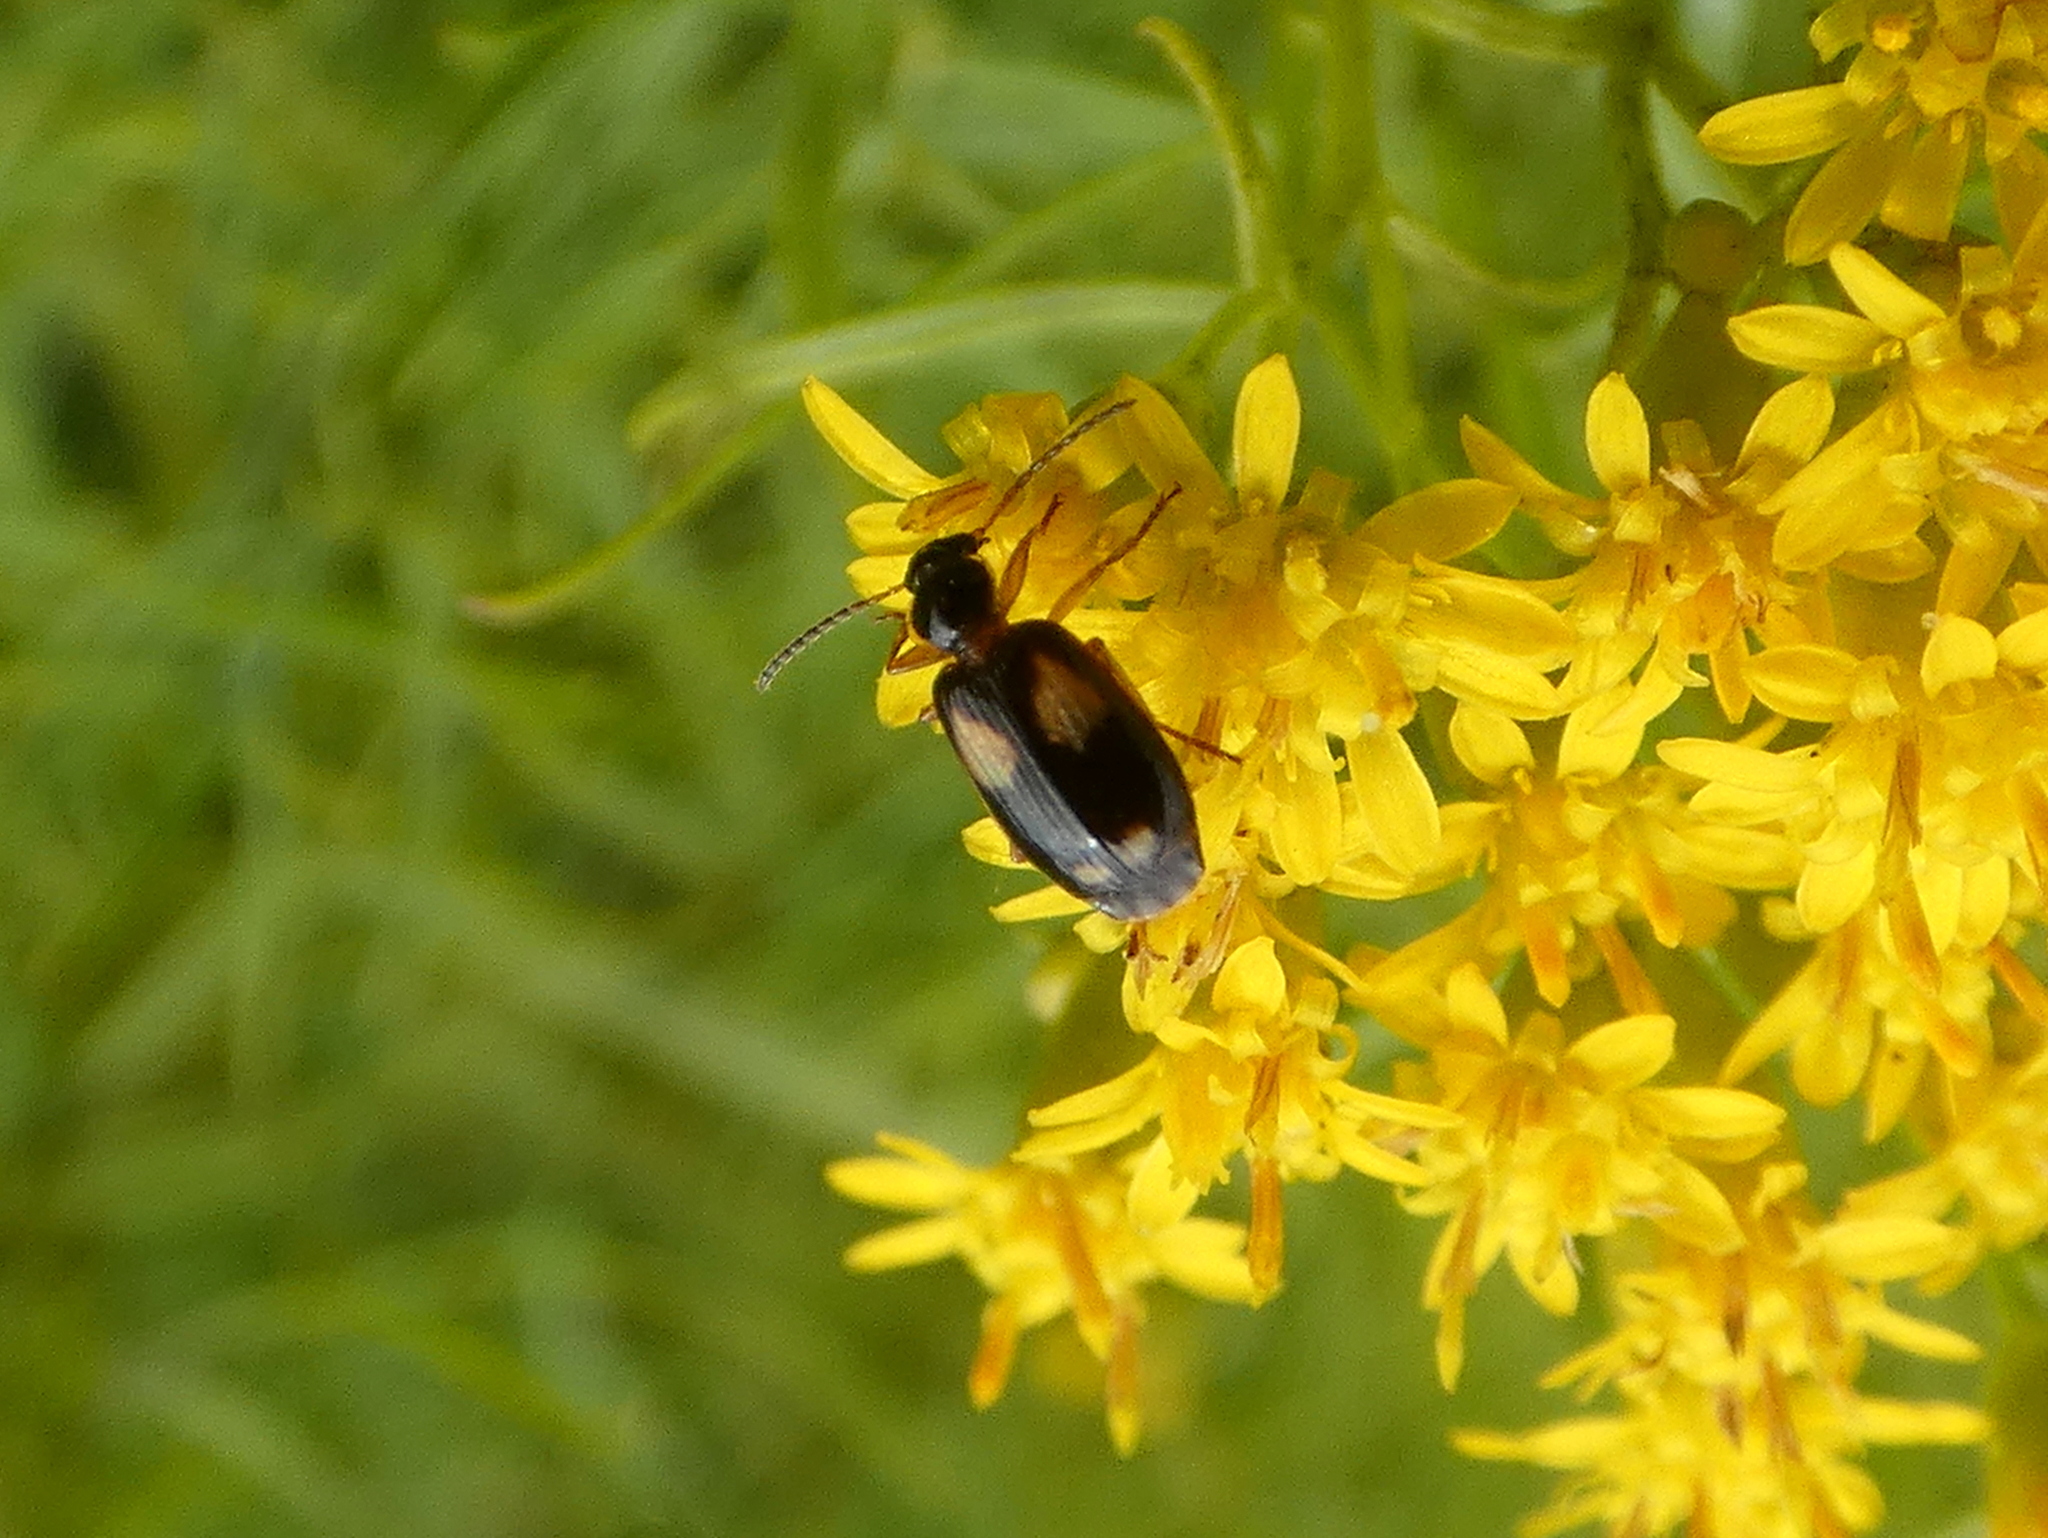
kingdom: Animalia
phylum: Arthropoda
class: Insecta
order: Coleoptera
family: Carabidae
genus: Lebia
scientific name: Lebia ornata
